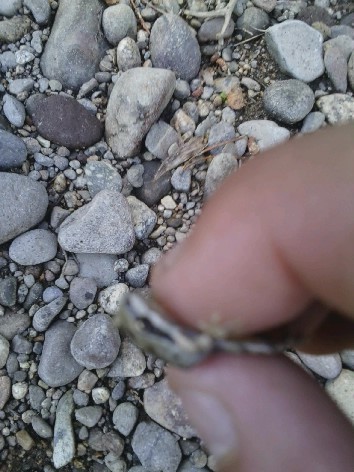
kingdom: Animalia
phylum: Chordata
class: Amphibia
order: Anura
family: Hylidae
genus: Pseudacris
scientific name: Pseudacris regilla
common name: Pacific chorus frog
